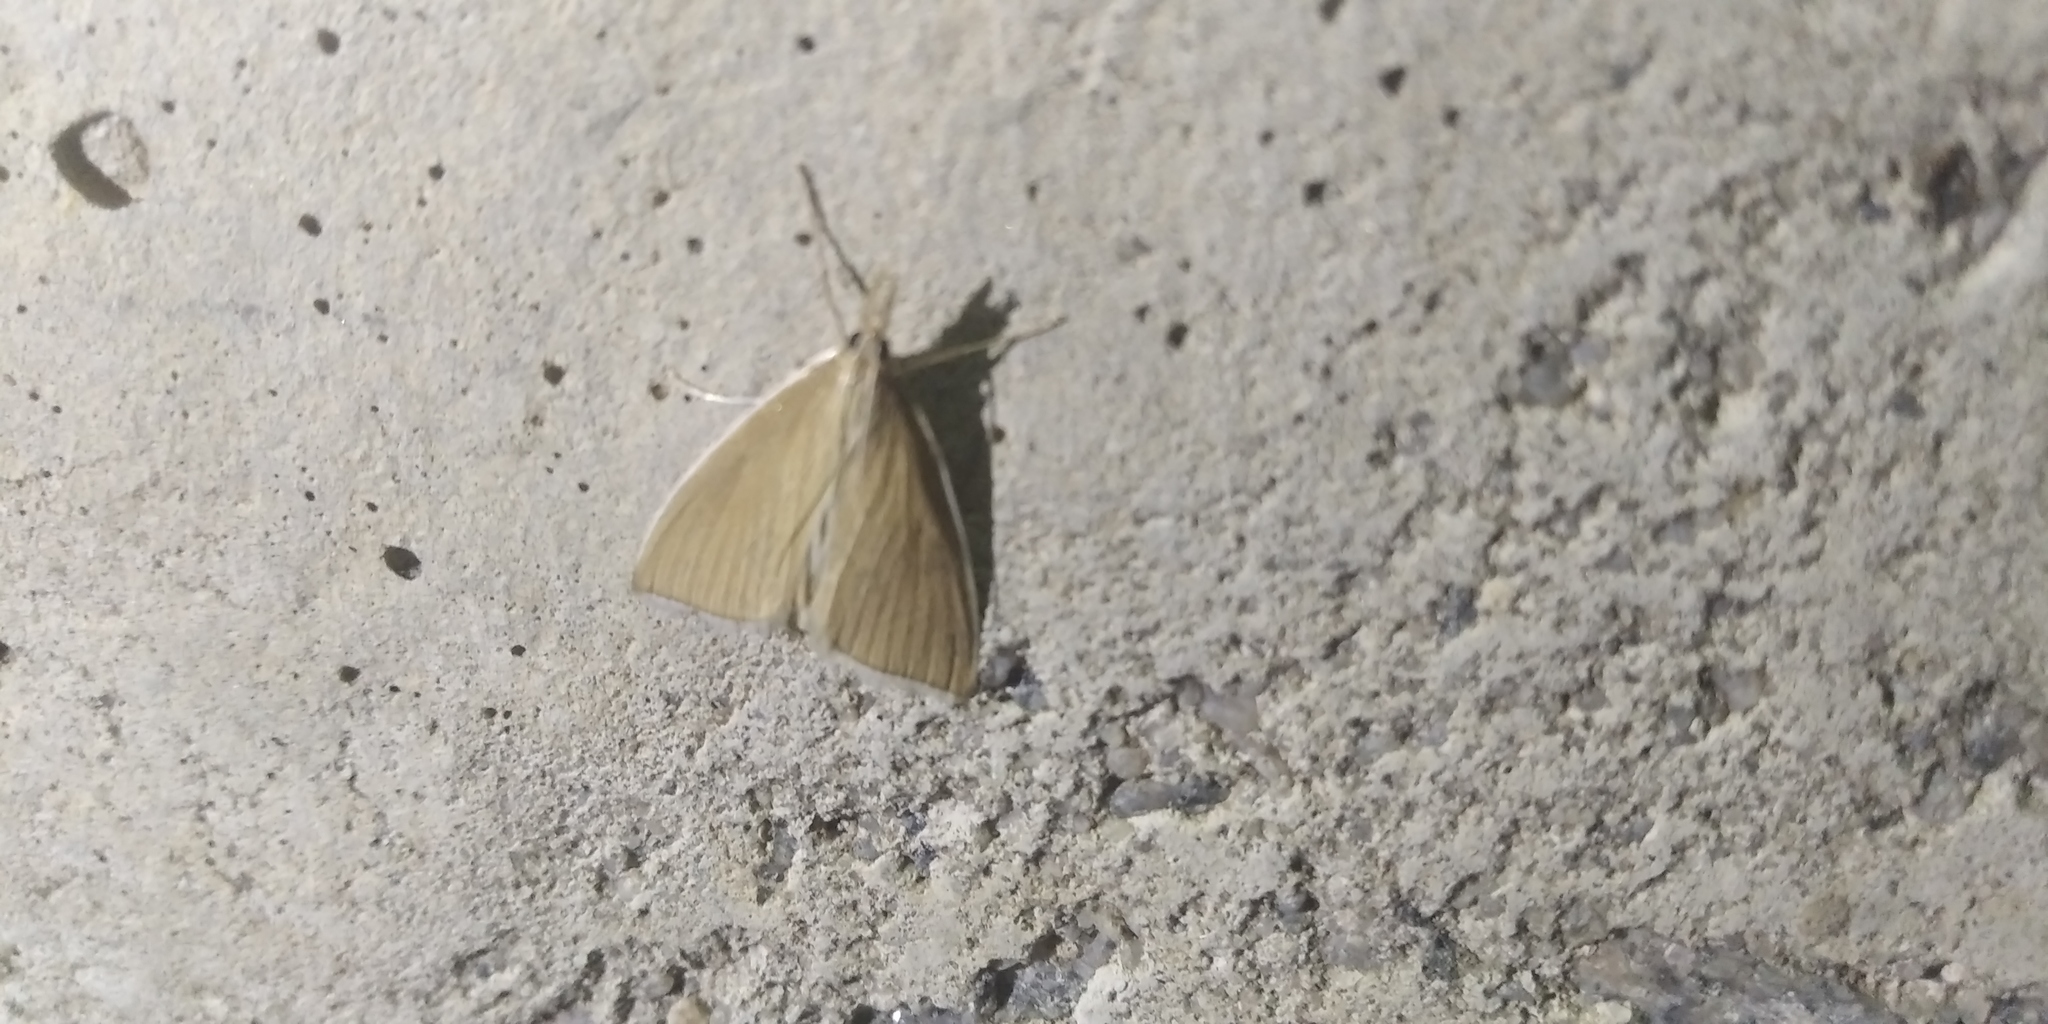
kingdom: Animalia
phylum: Arthropoda
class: Insecta
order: Lepidoptera
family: Crambidae
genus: Calamochrous
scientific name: Calamochrous Sclerocona acutella
